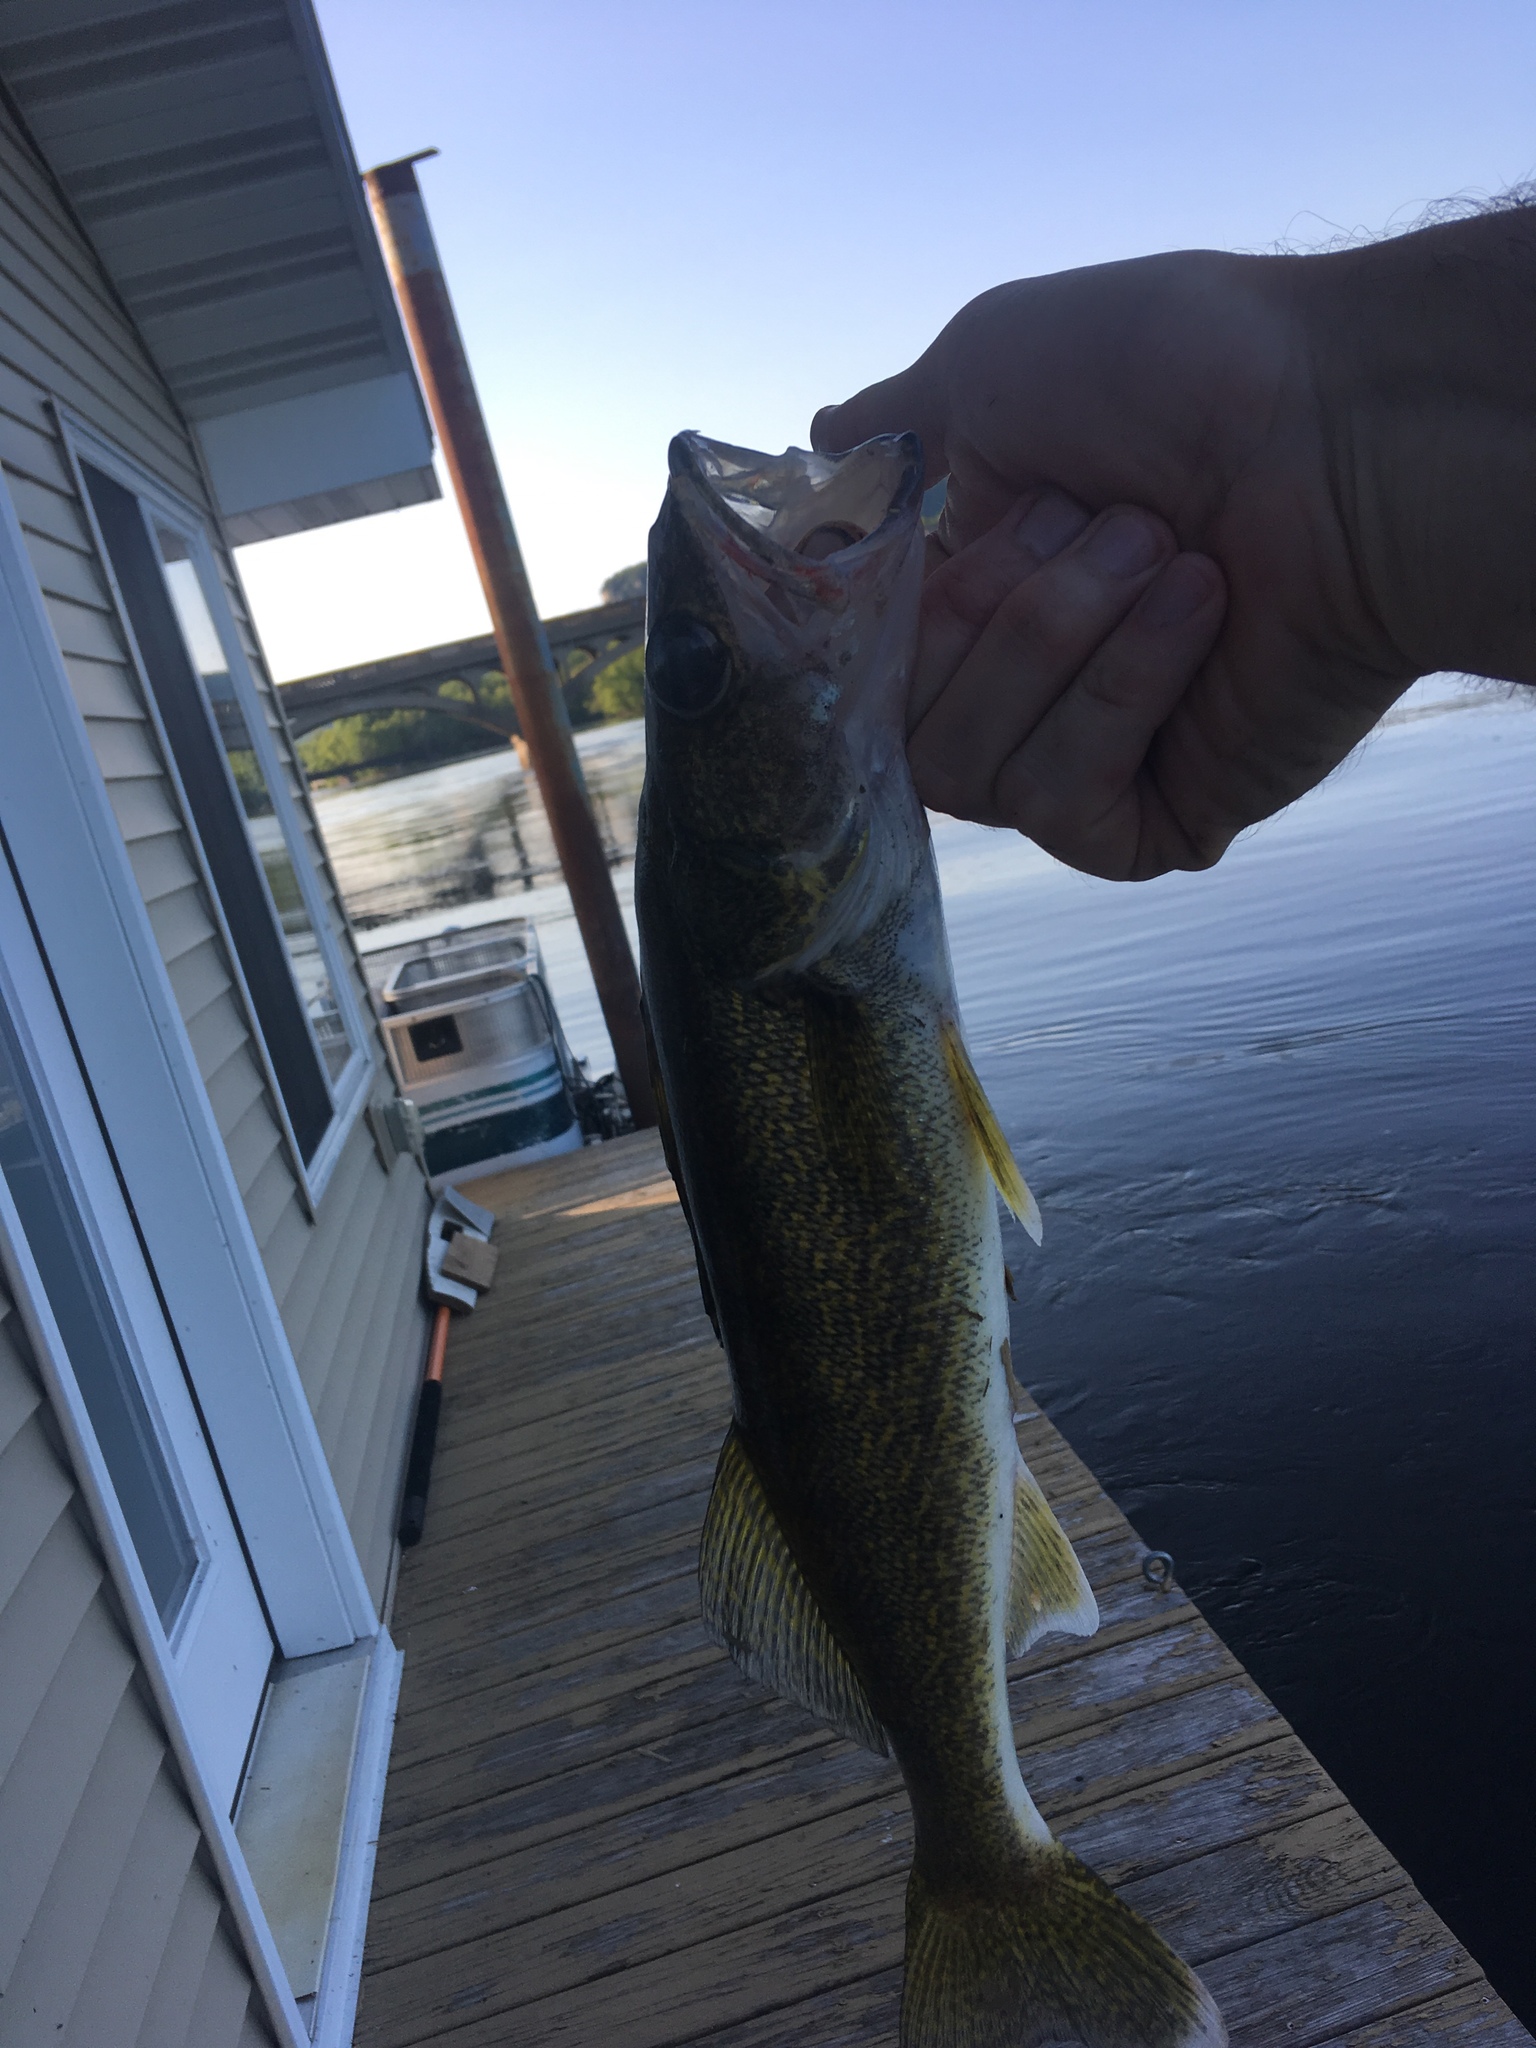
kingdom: Animalia
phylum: Chordata
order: Perciformes
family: Percidae
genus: Sander
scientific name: Sander vitreus
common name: Walleye
